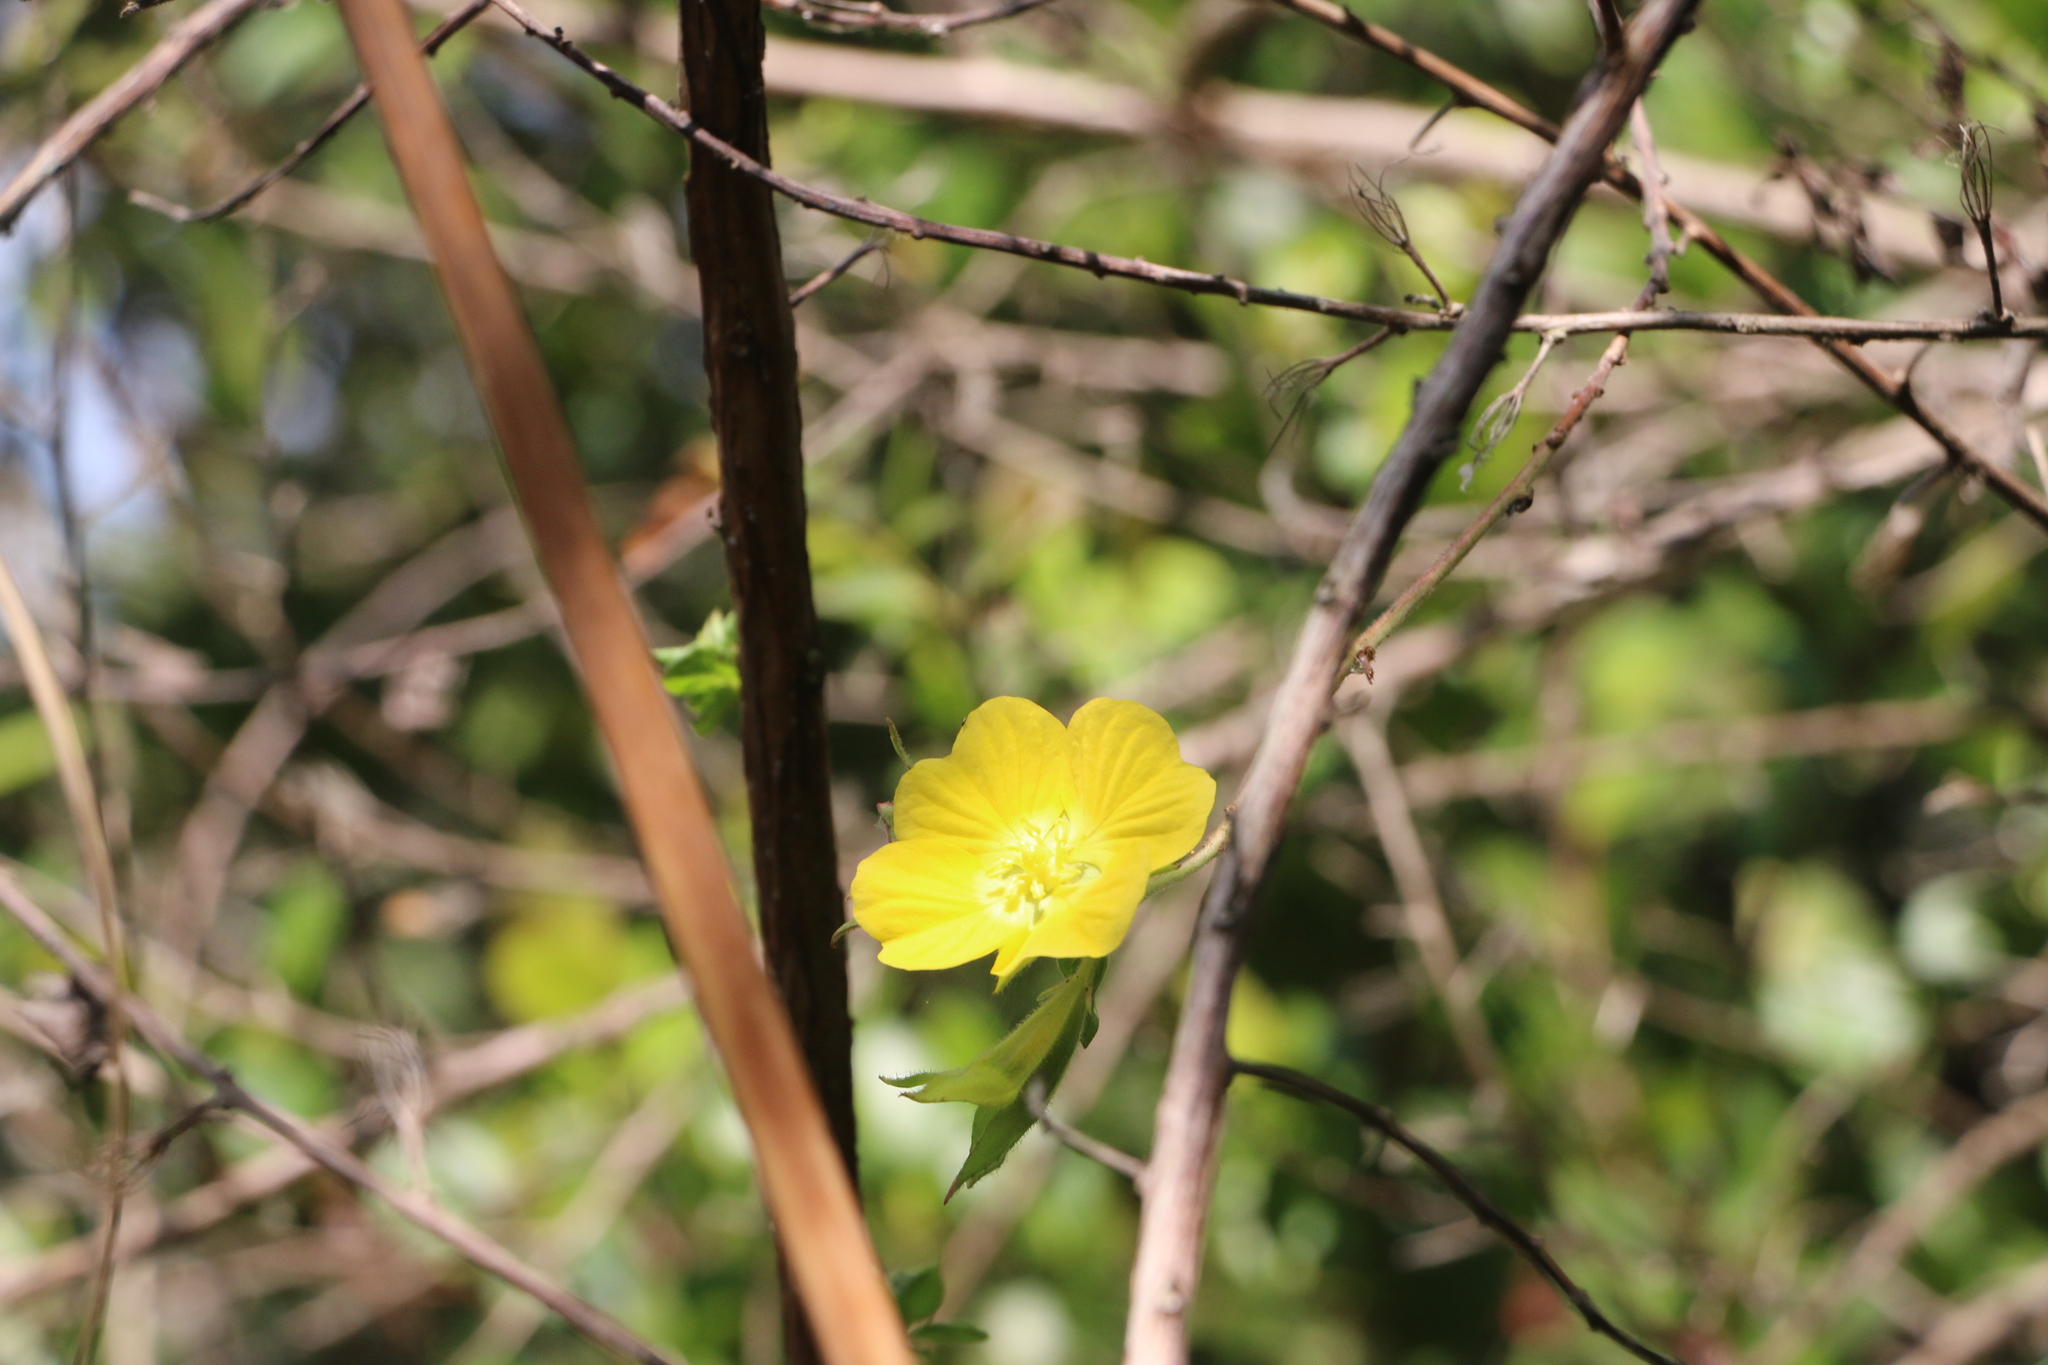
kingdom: Plantae
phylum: Tracheophyta
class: Magnoliopsida
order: Myrtales
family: Onagraceae
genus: Ludwigia
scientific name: Ludwigia peruviana
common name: Peruvian primrose-willow
